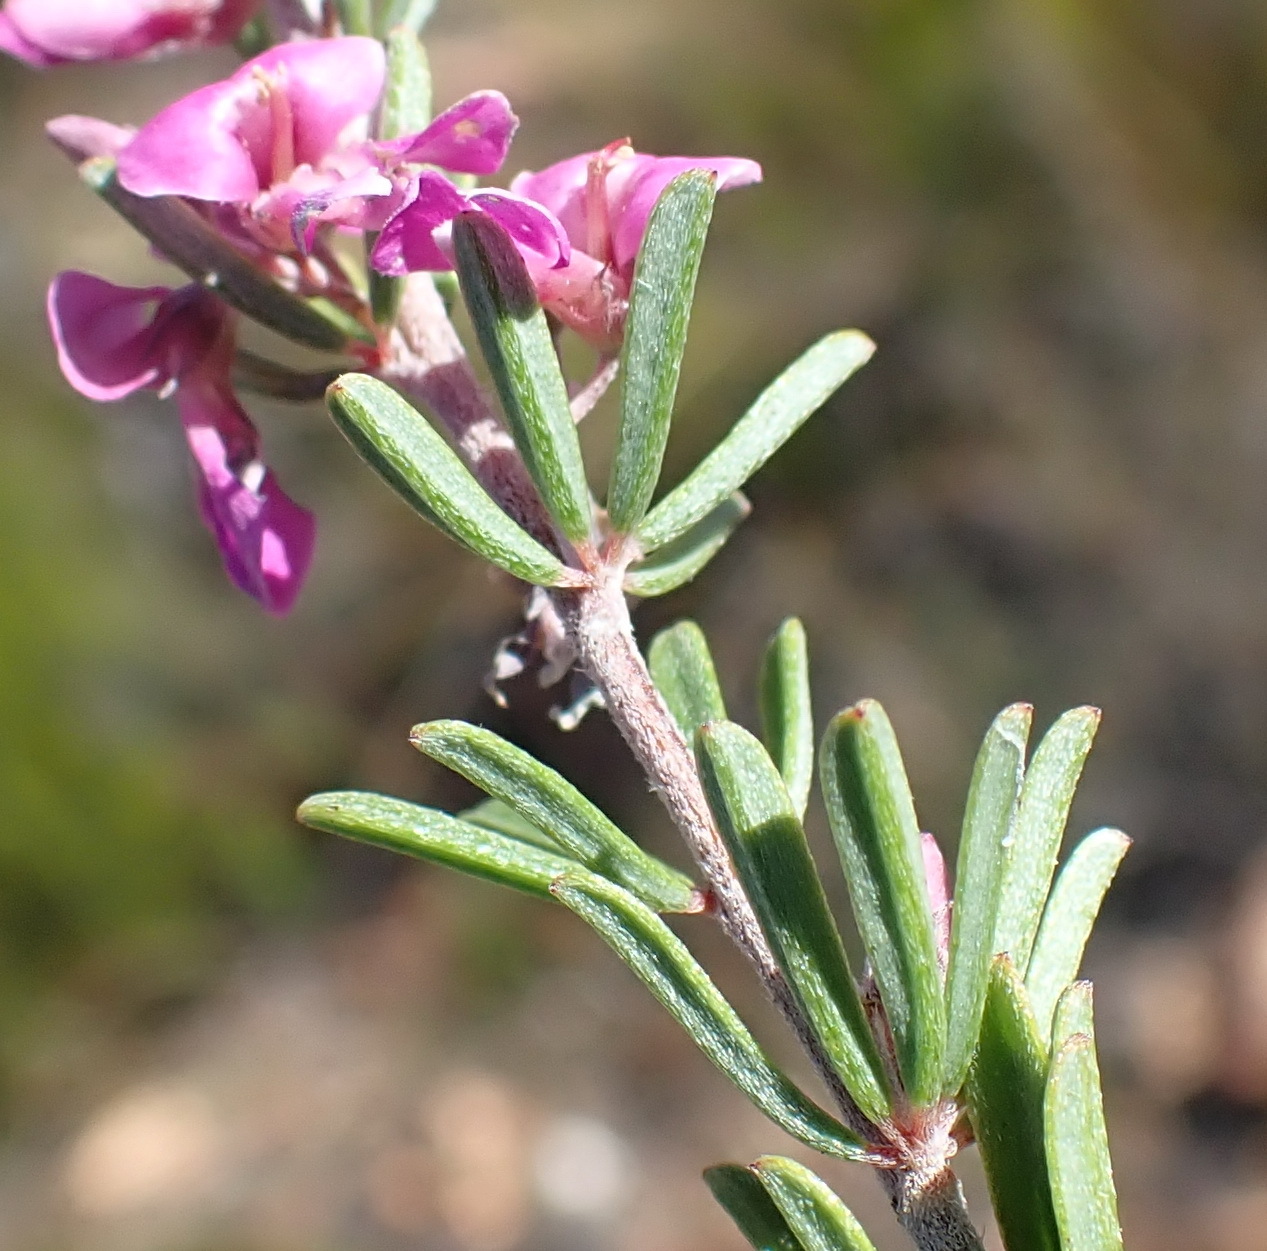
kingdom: Plantae
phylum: Tracheophyta
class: Magnoliopsida
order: Fabales
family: Fabaceae
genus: Indigofera
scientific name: Indigofera pappei
